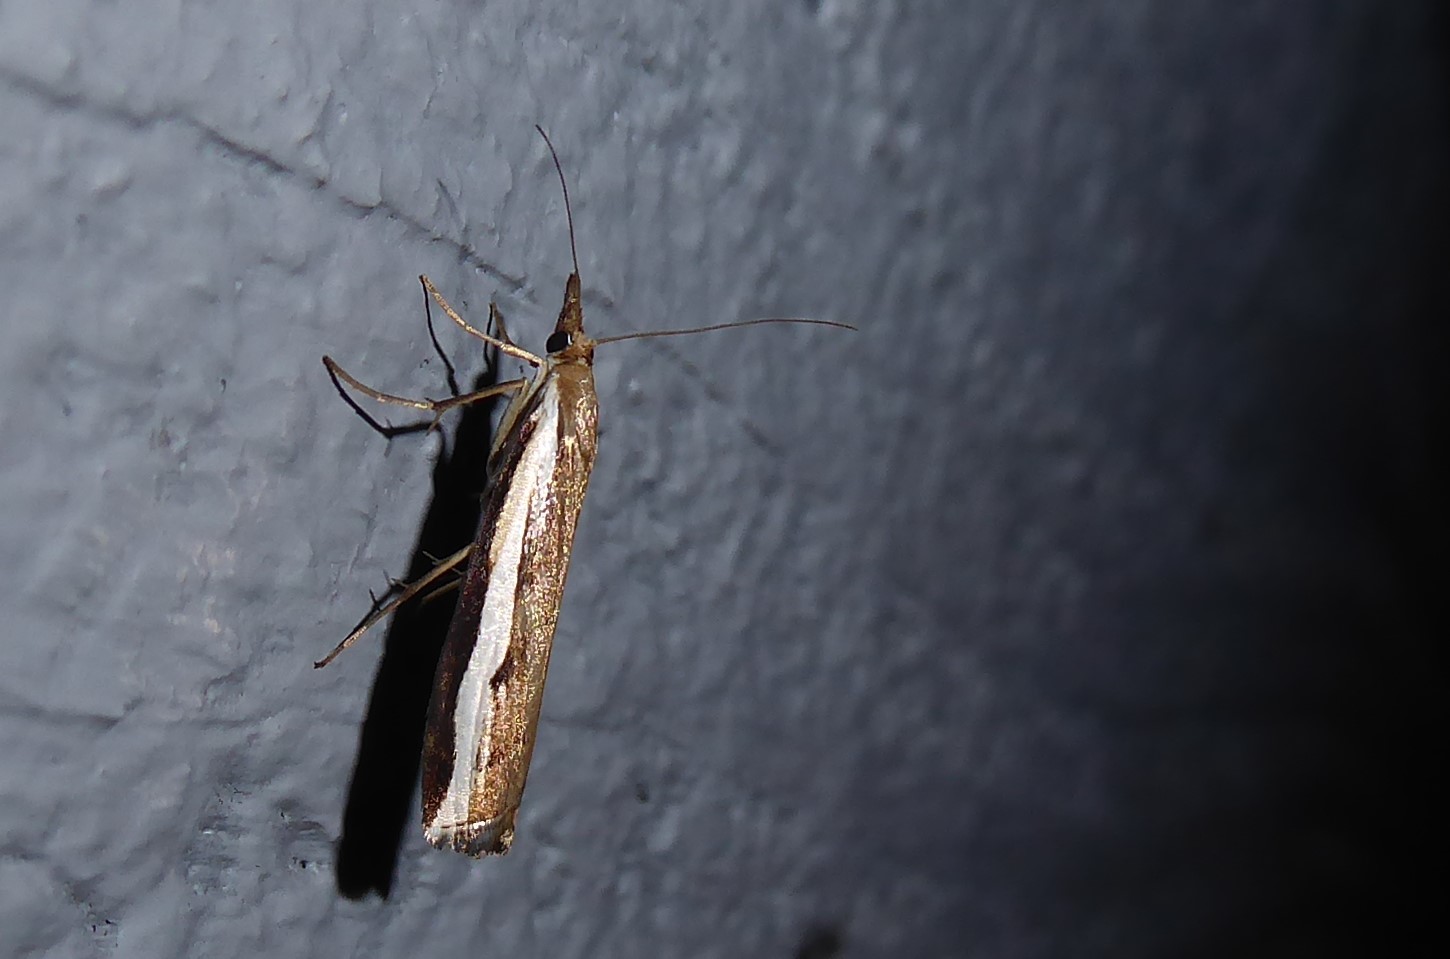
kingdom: Animalia
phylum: Arthropoda
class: Insecta
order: Lepidoptera
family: Crambidae
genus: Orocrambus
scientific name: Orocrambus flexuosellus
